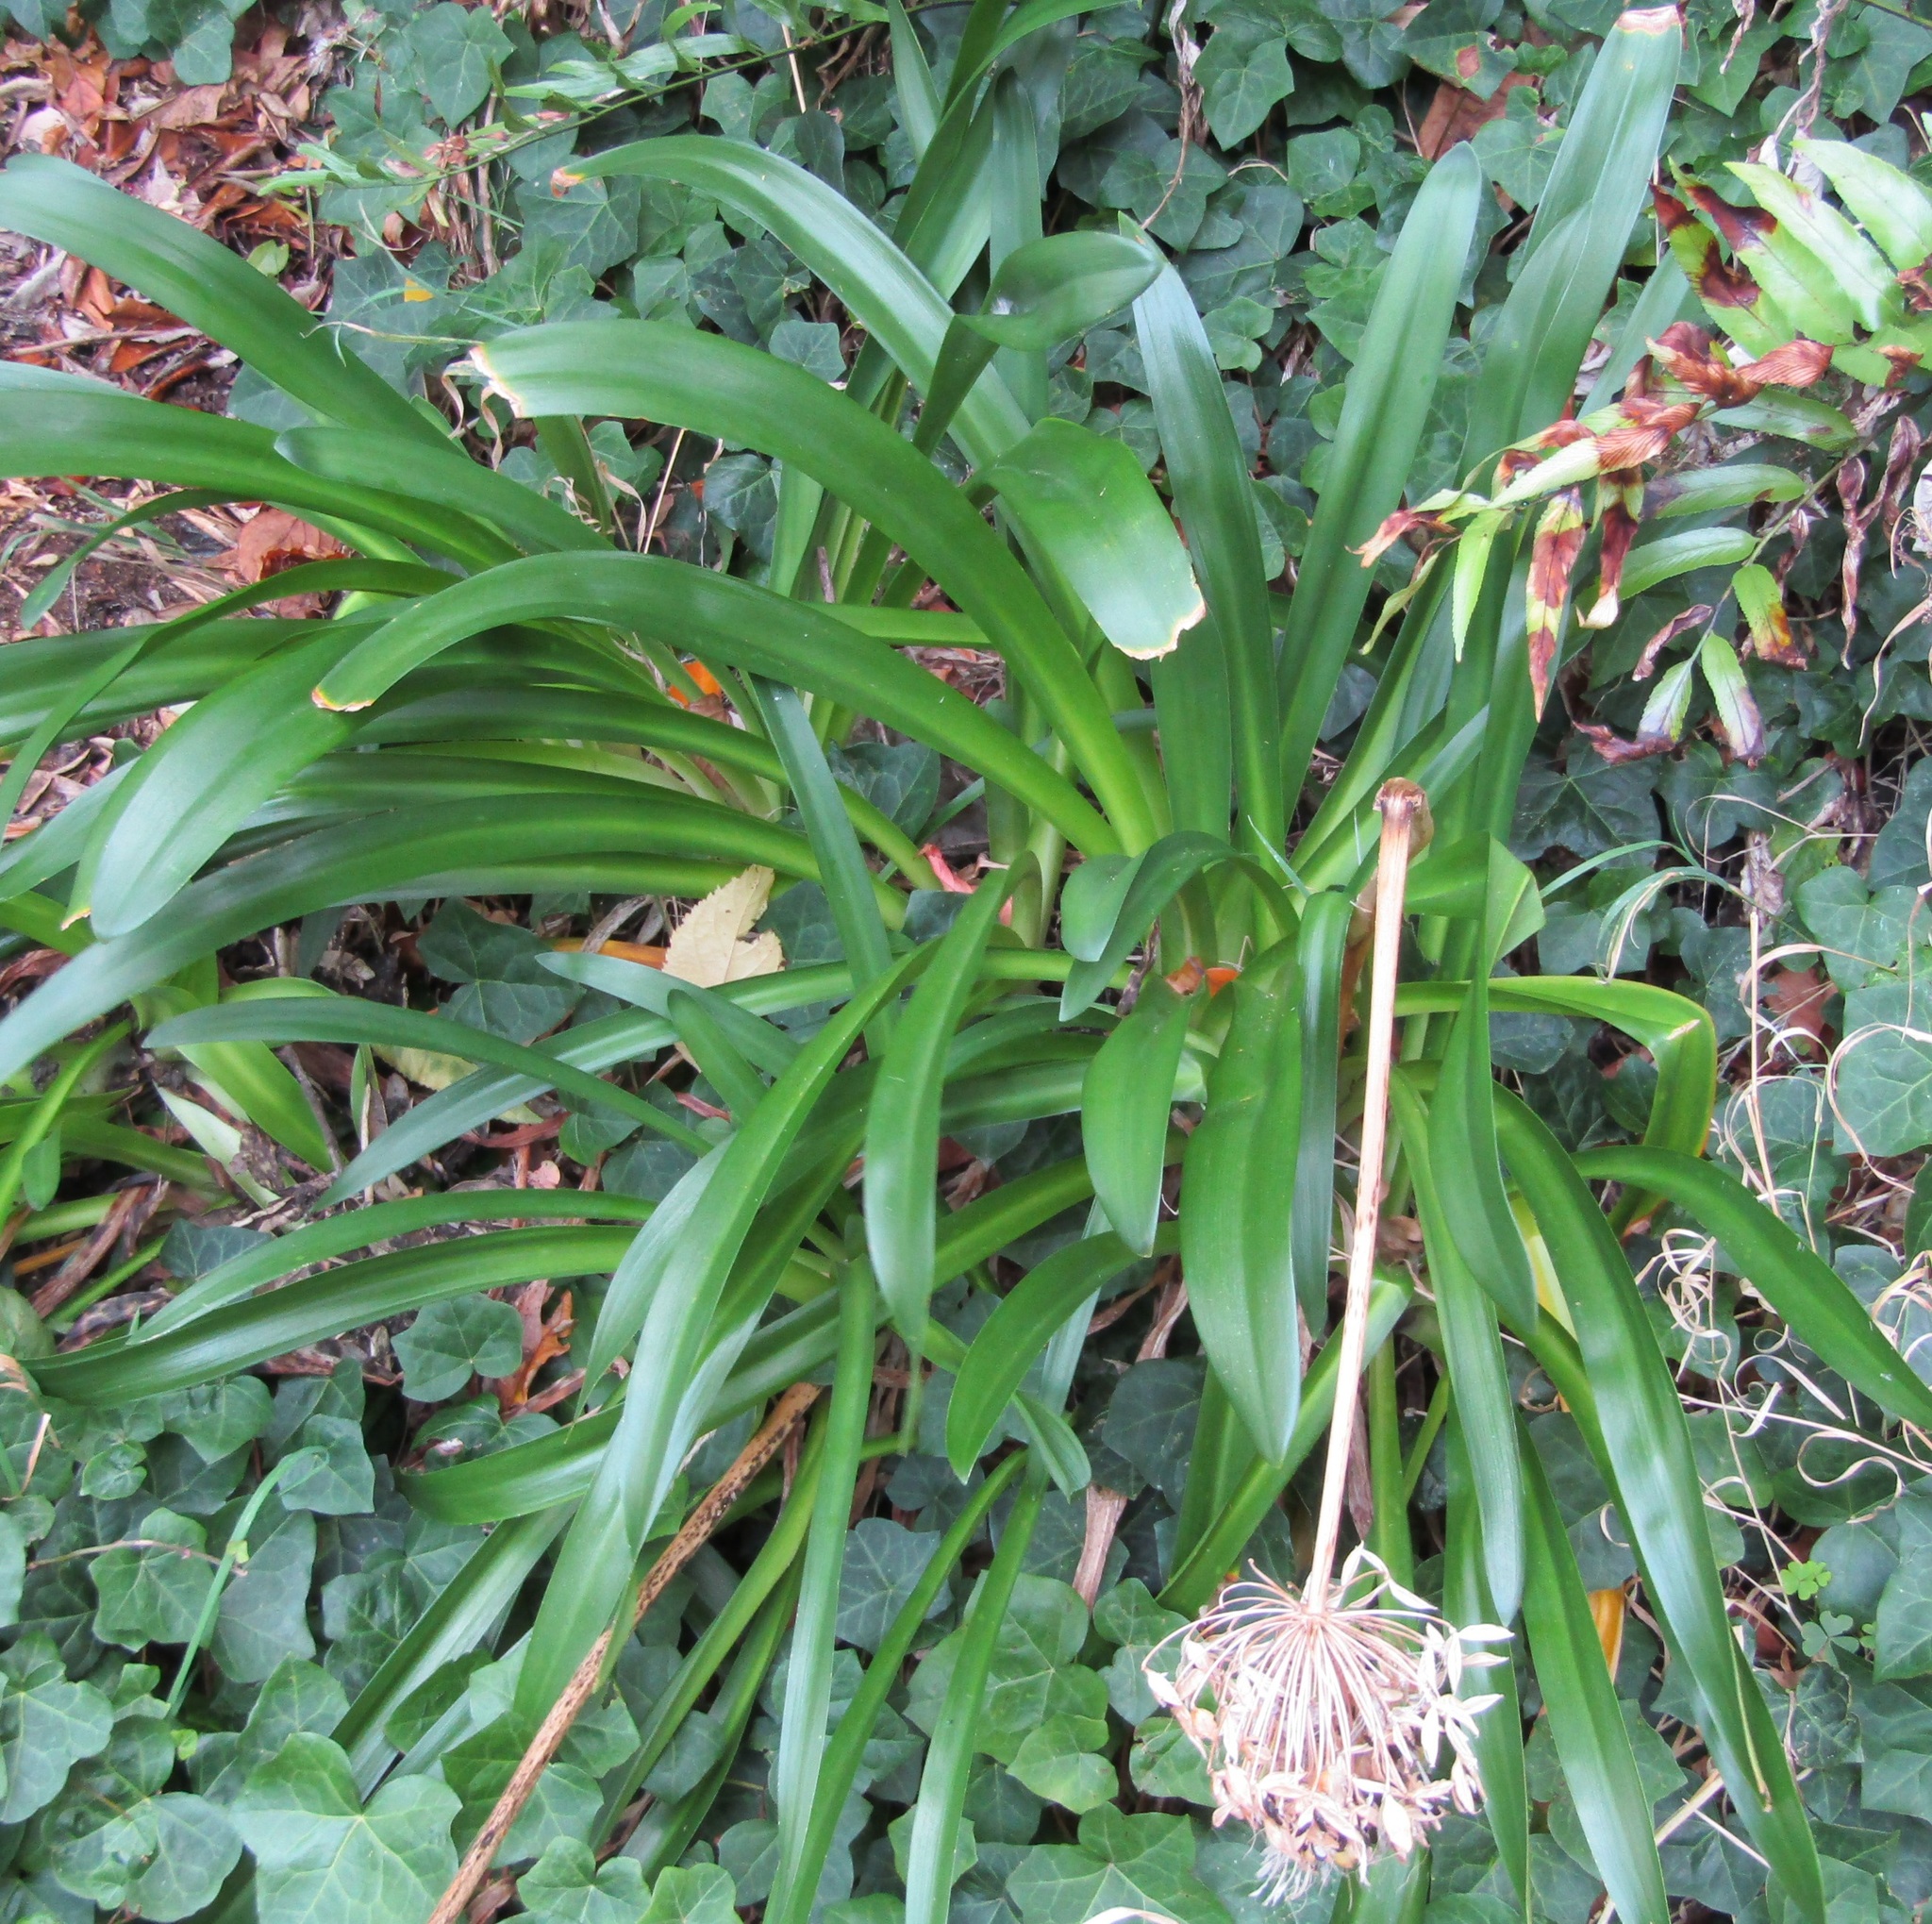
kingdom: Plantae
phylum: Tracheophyta
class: Liliopsida
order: Asparagales
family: Amaryllidaceae
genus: Agapanthus
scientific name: Agapanthus praecox
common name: African-lily
